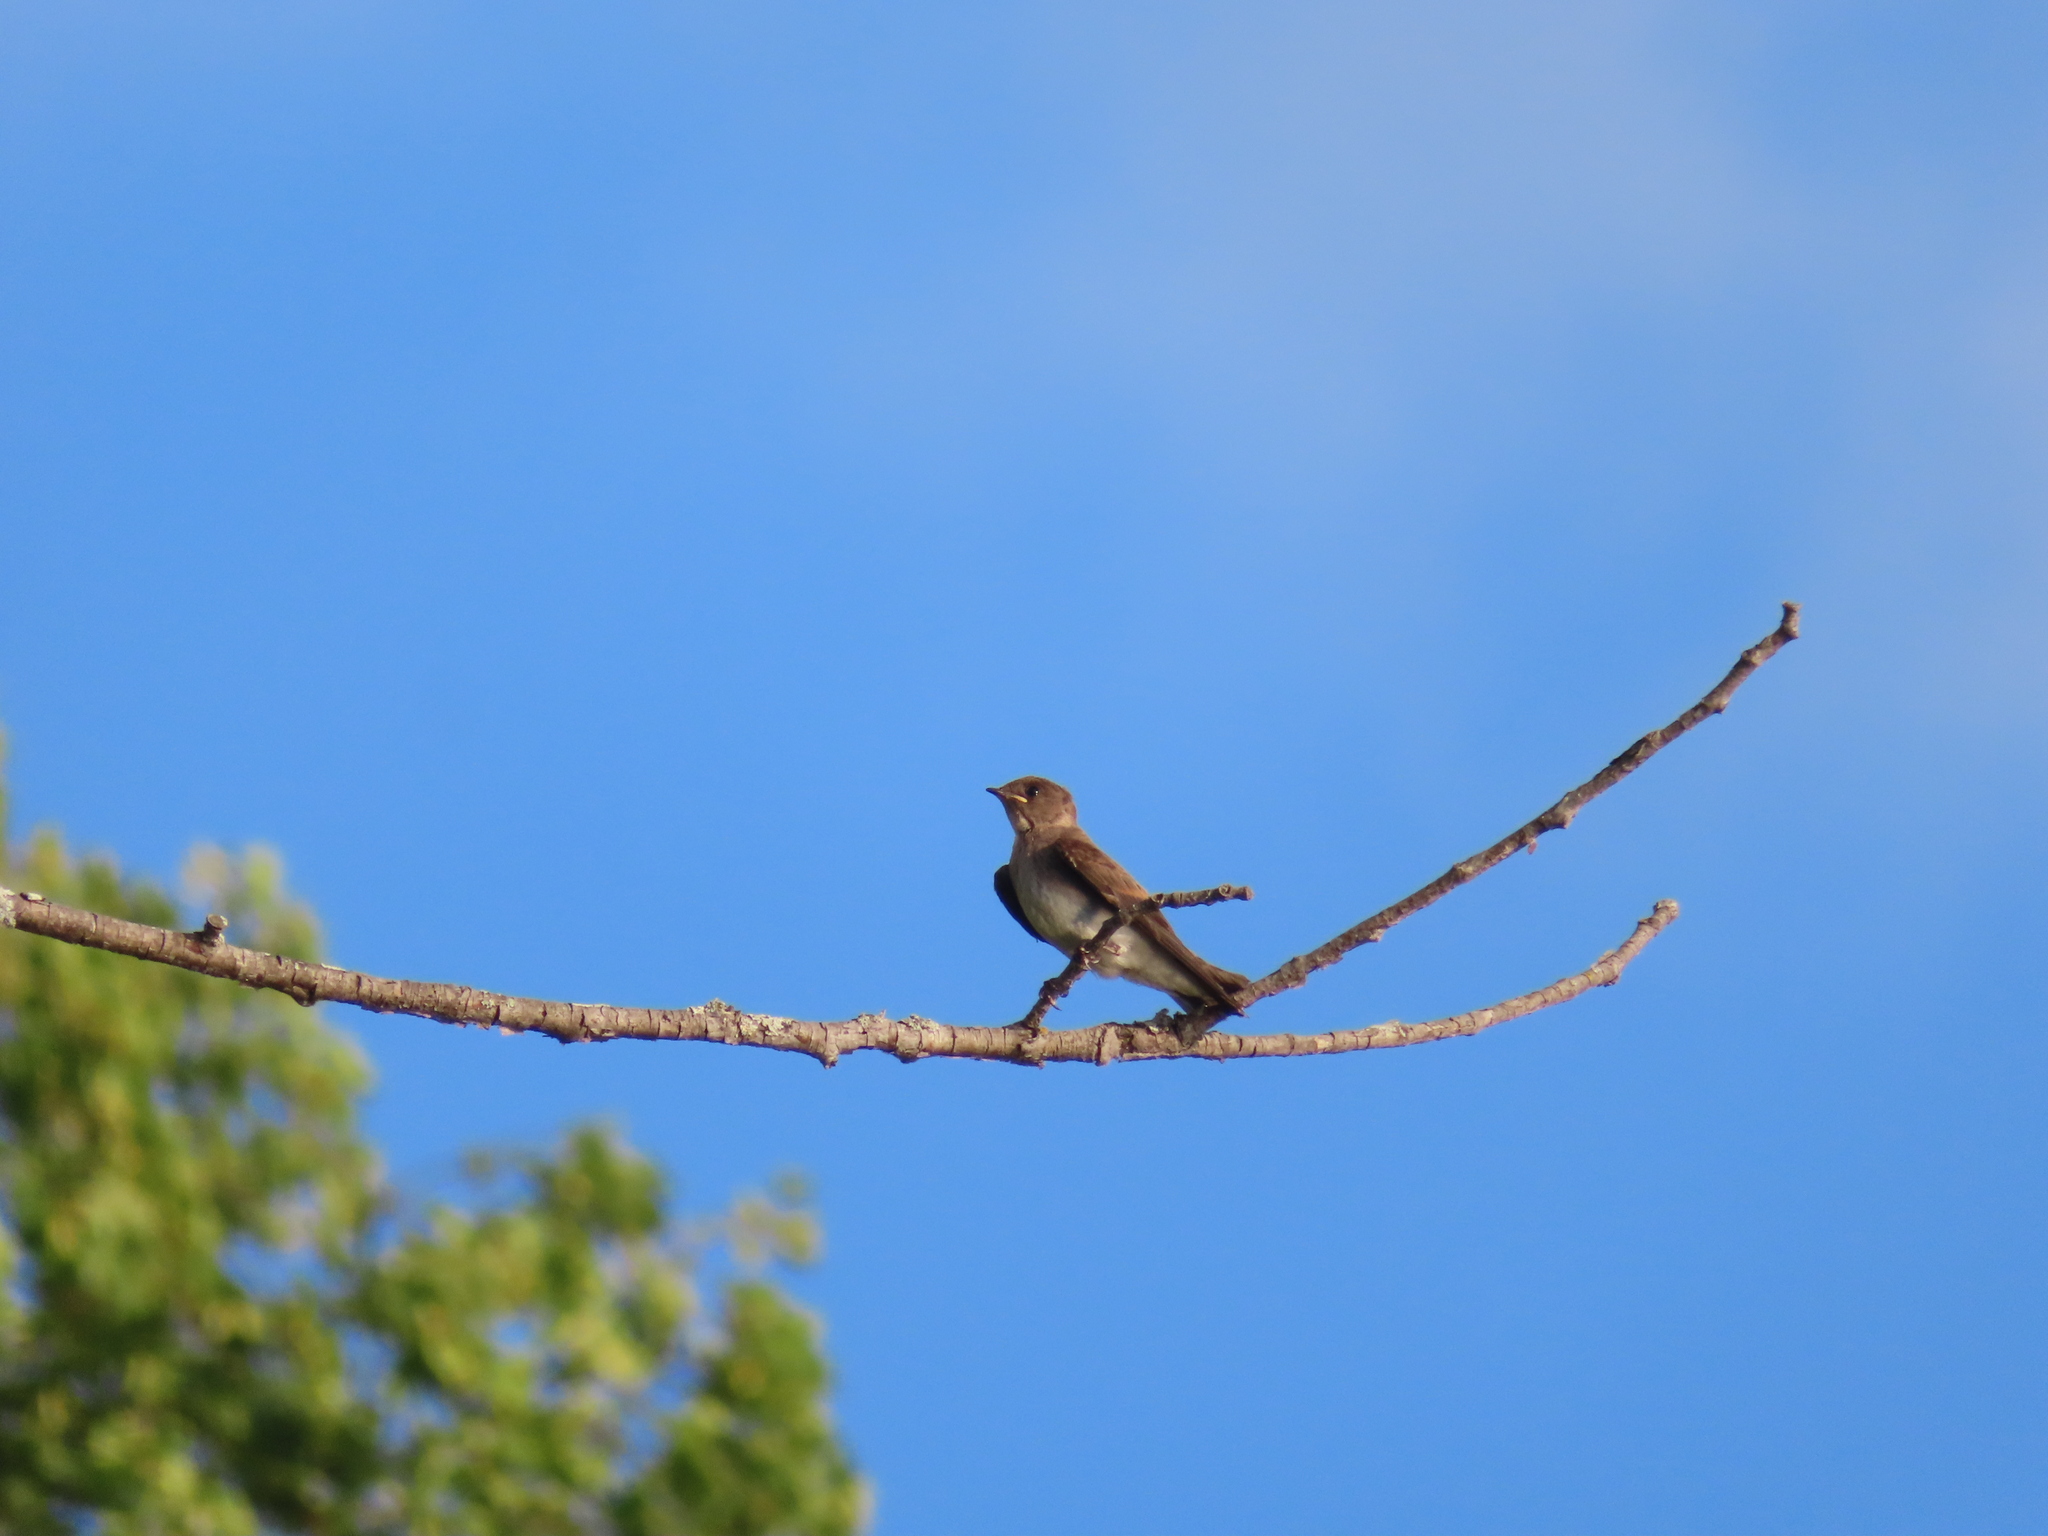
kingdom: Animalia
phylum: Chordata
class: Aves
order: Passeriformes
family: Hirundinidae
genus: Stelgidopteryx
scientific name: Stelgidopteryx serripennis
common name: Northern rough-winged swallow
